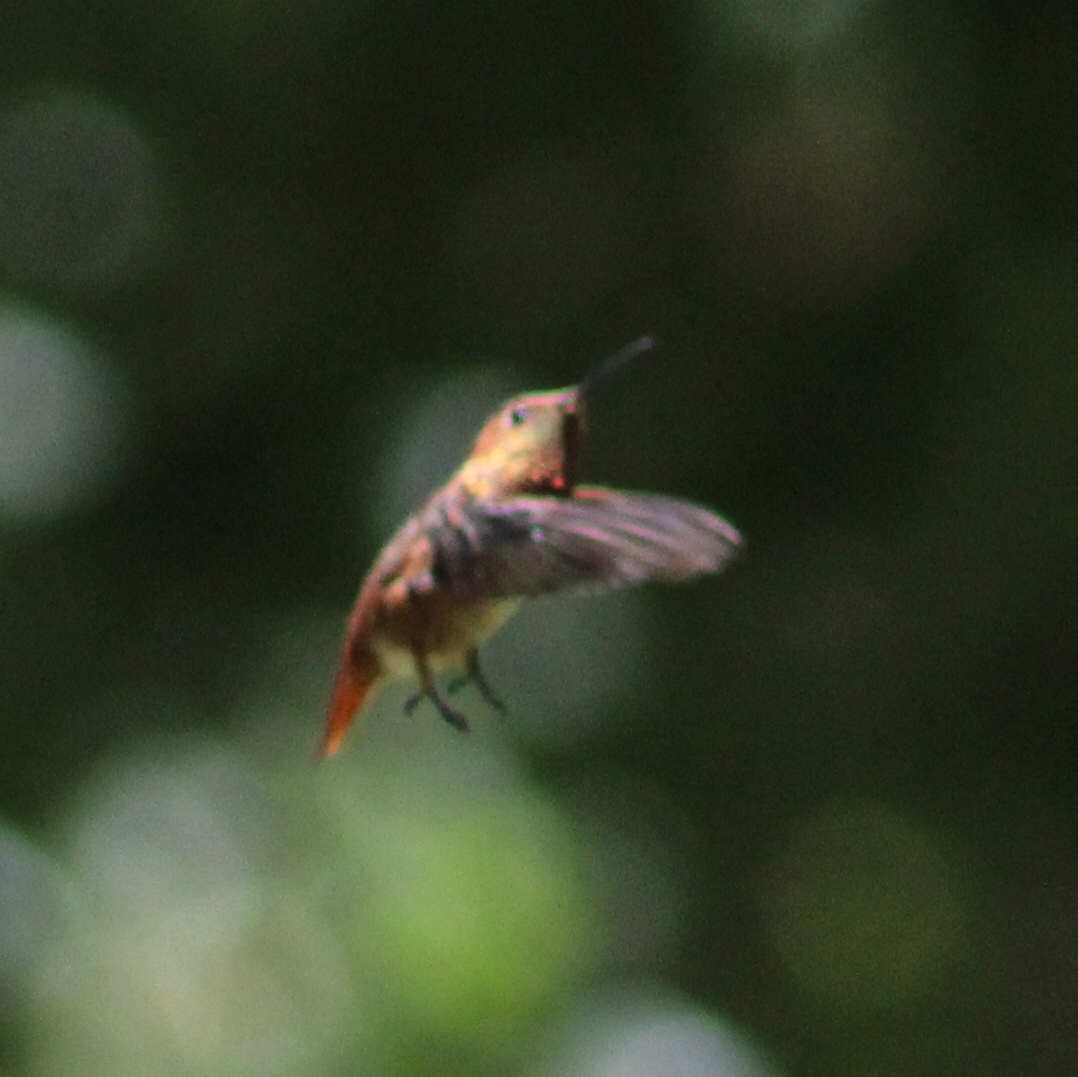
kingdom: Animalia
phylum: Chordata
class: Aves
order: Apodiformes
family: Trochilidae
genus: Selasphorus
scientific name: Selasphorus sasin
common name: Allen's hummingbird
